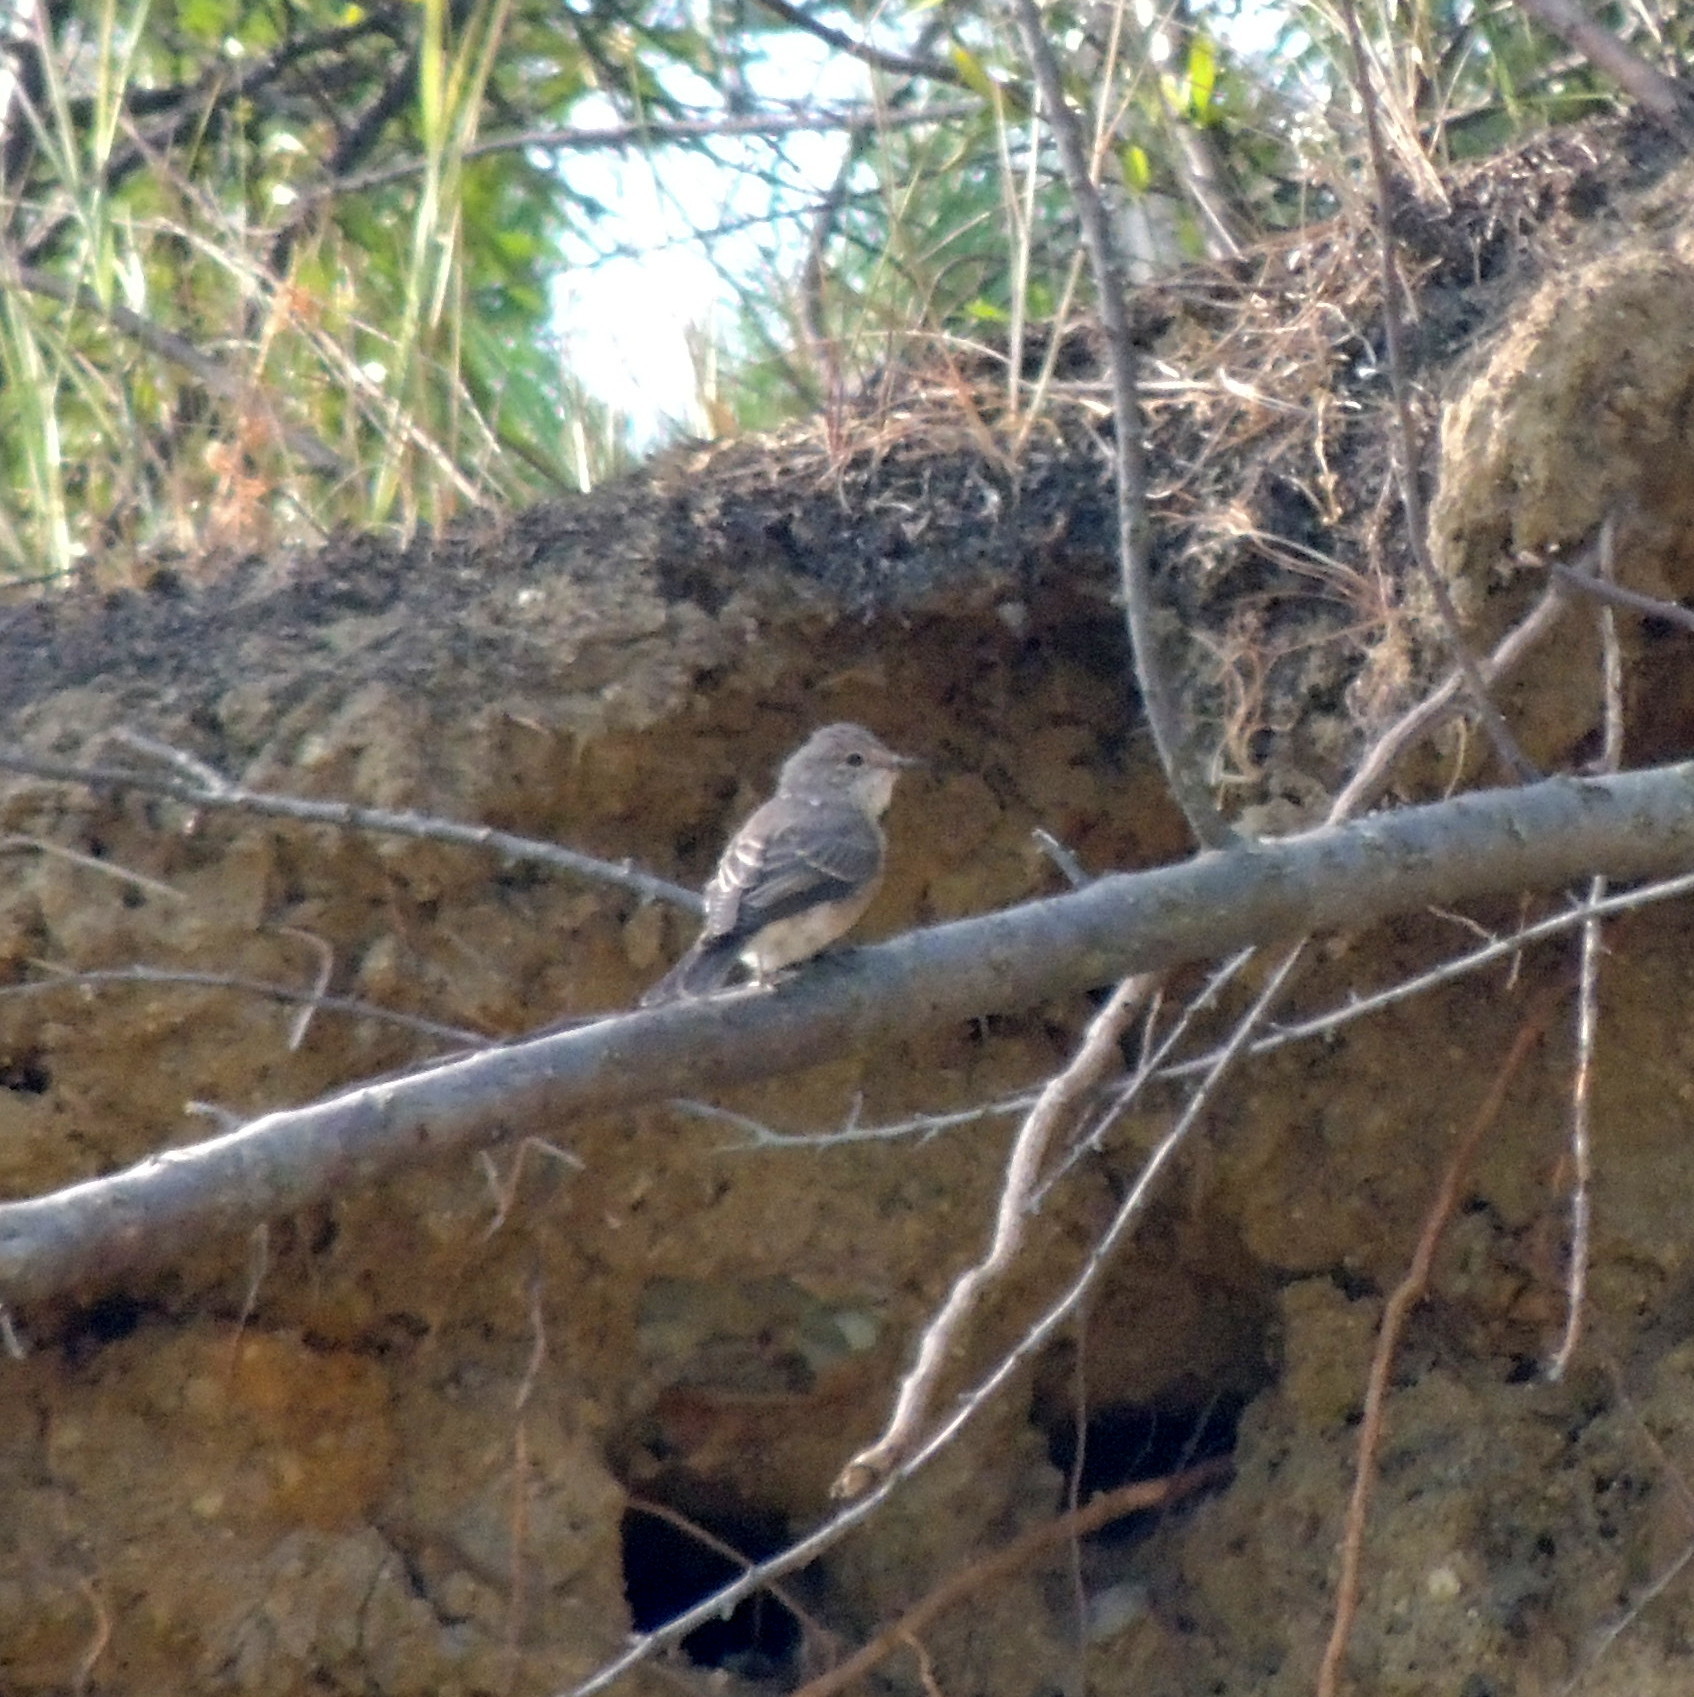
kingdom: Animalia
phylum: Chordata
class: Aves
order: Passeriformes
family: Muscicapidae
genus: Muscicapa
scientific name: Muscicapa striata
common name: Spotted flycatcher
